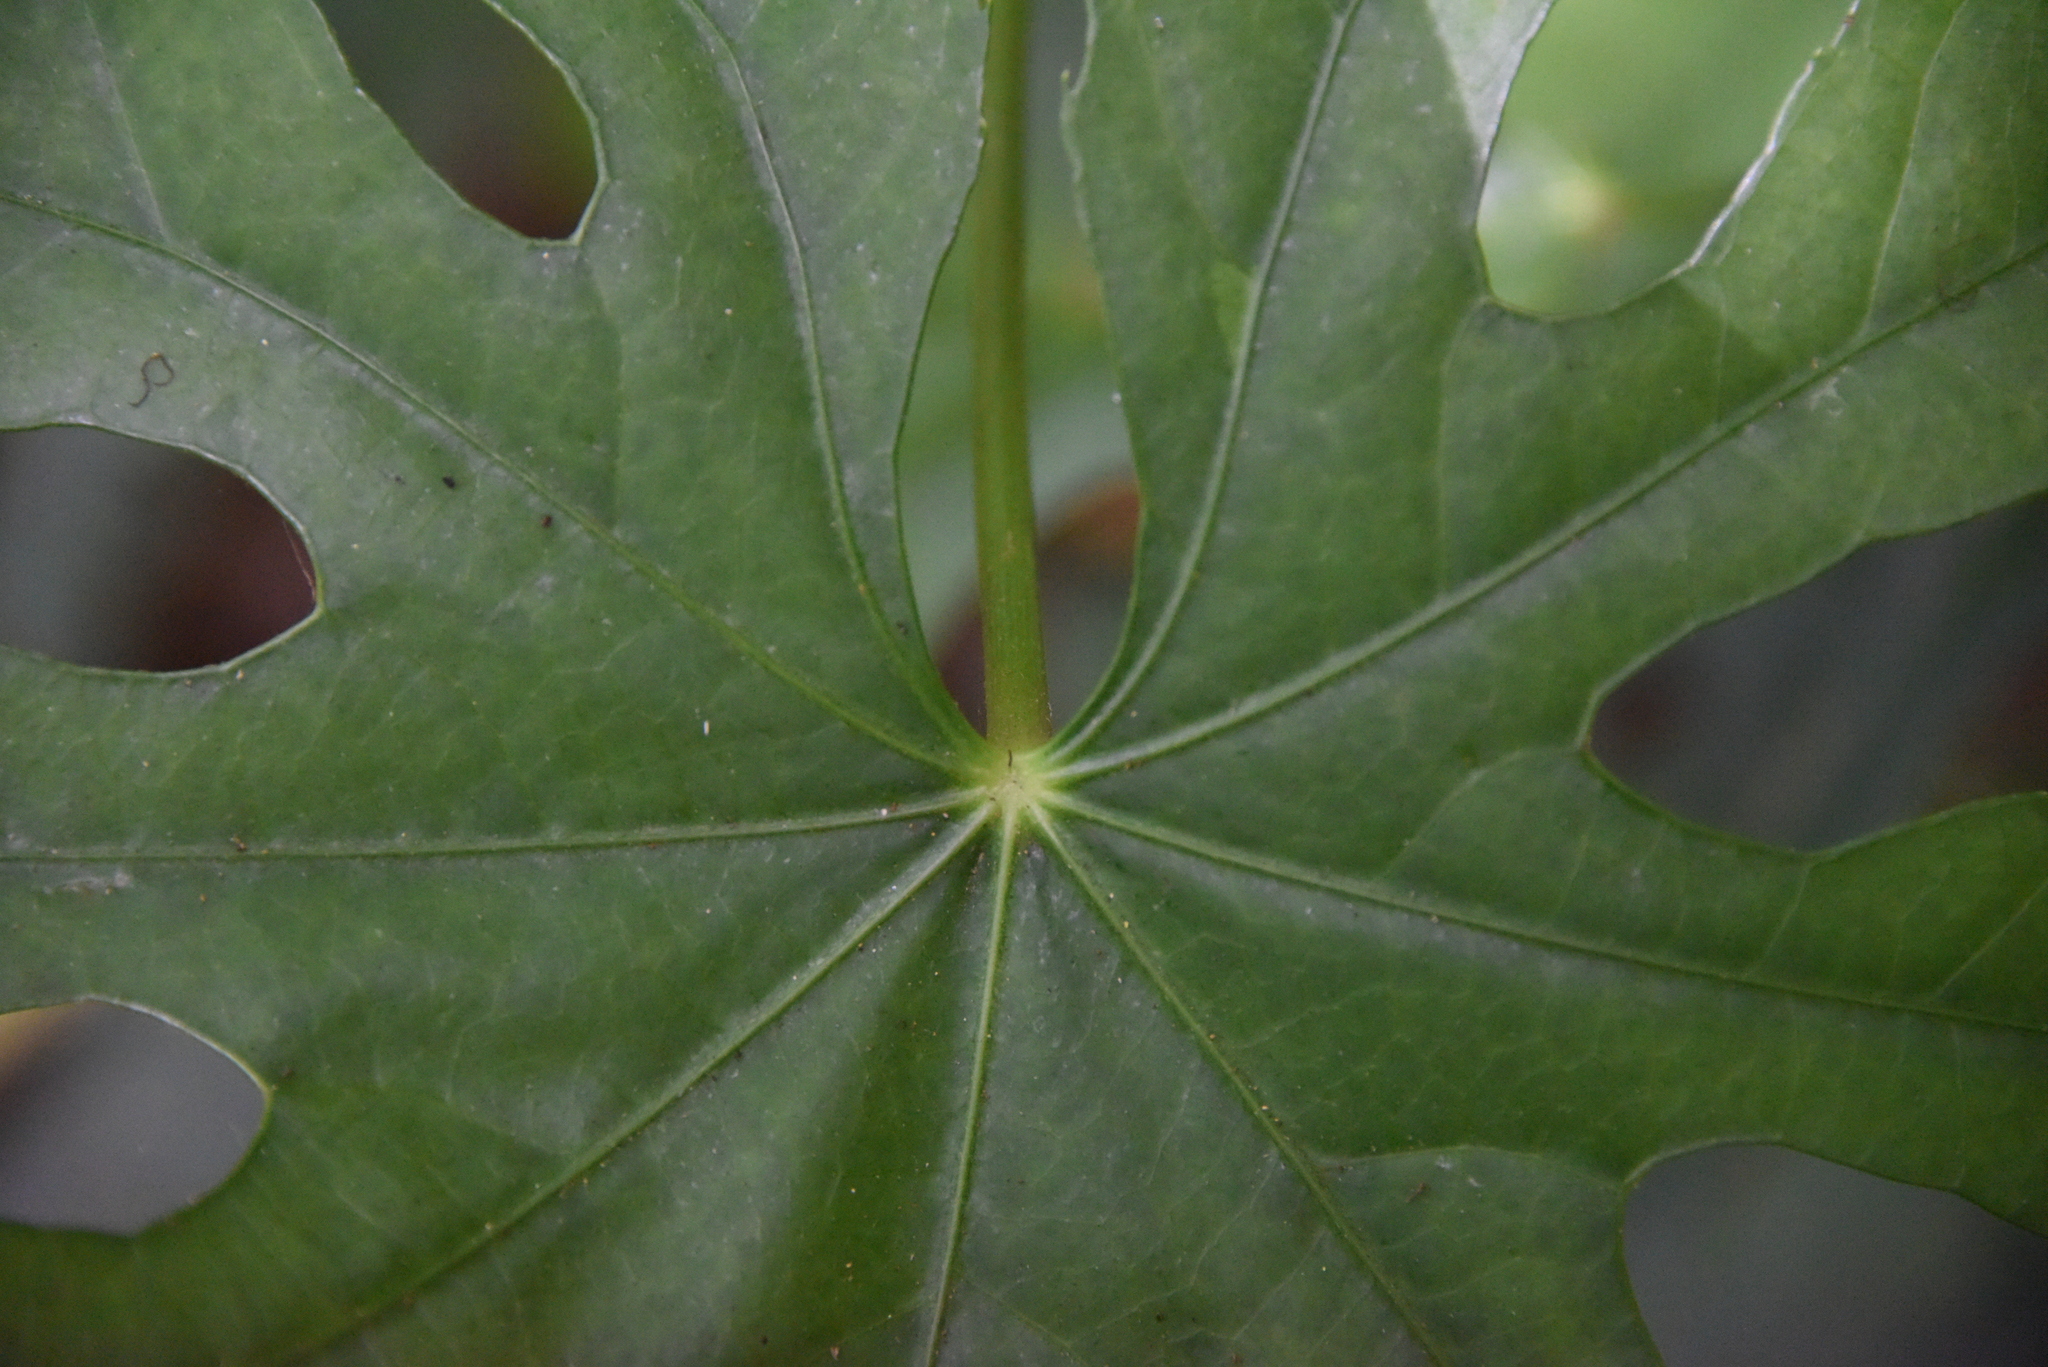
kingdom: Plantae
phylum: Tracheophyta
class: Magnoliopsida
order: Apiales
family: Araliaceae
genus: Fatsia
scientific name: Fatsia polycarpa
